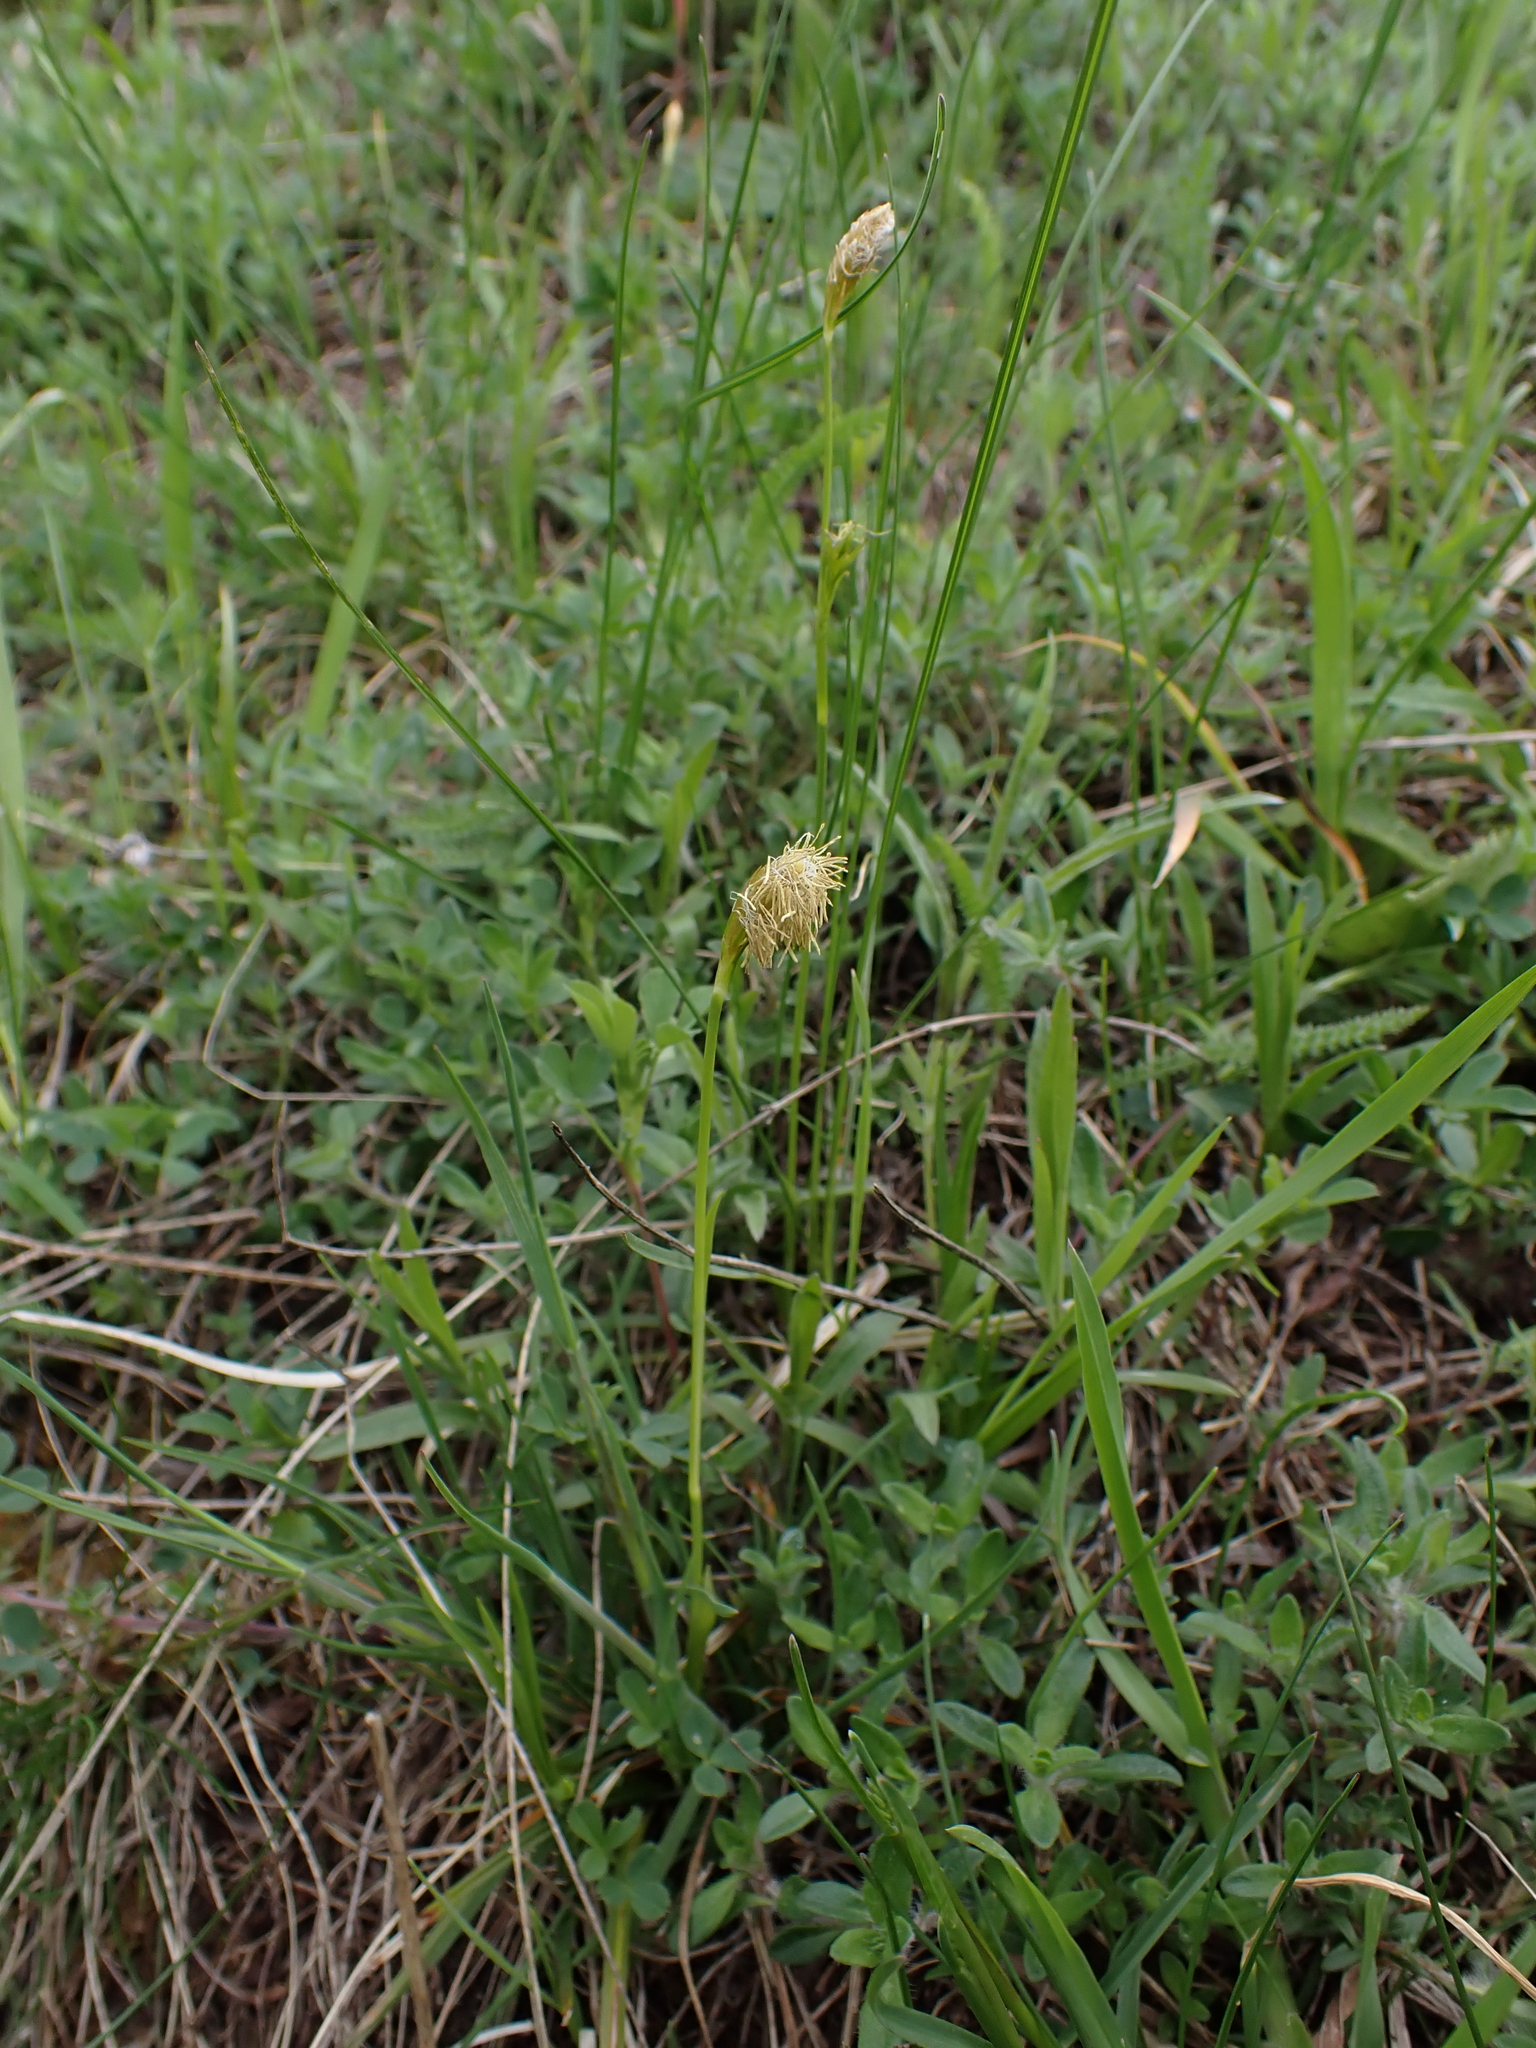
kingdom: Plantae
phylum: Tracheophyta
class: Liliopsida
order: Poales
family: Cyperaceae
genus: Carex
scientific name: Carex michelii
